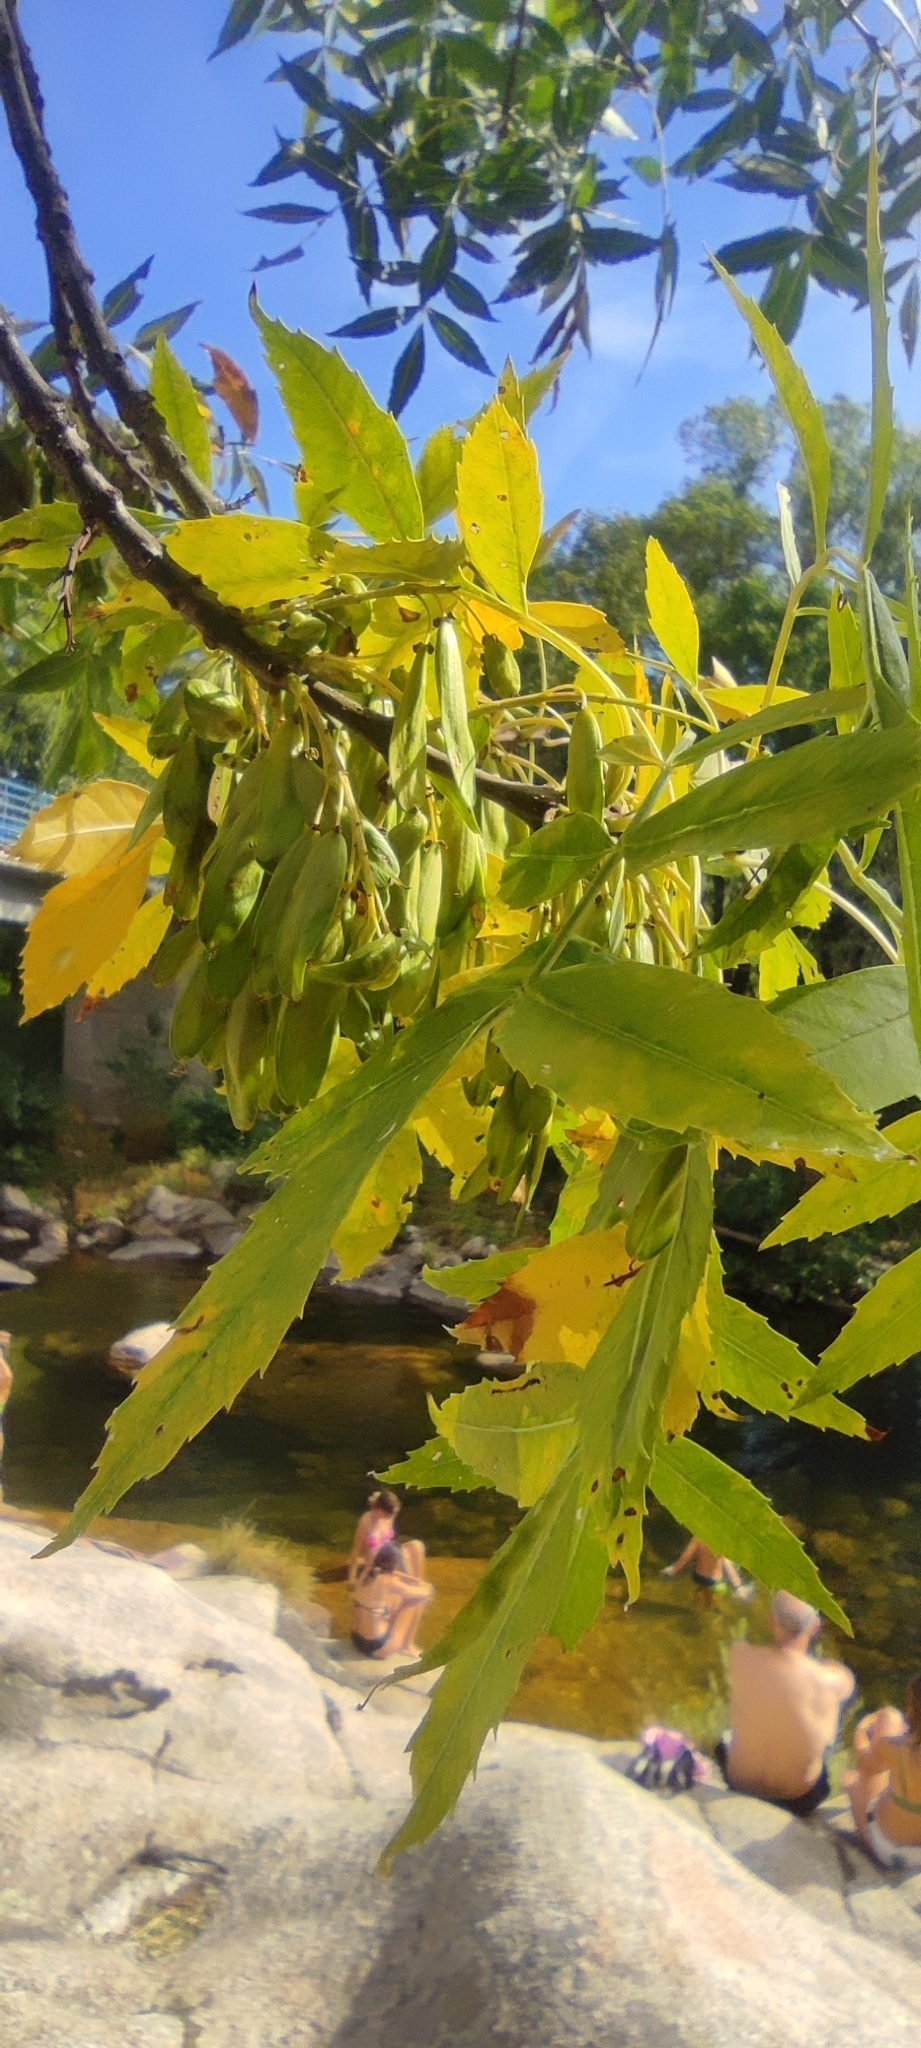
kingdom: Plantae
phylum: Tracheophyta
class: Magnoliopsida
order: Lamiales
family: Oleaceae
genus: Fraxinus
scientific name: Fraxinus angustifolia
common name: Narrow-leafed ash
